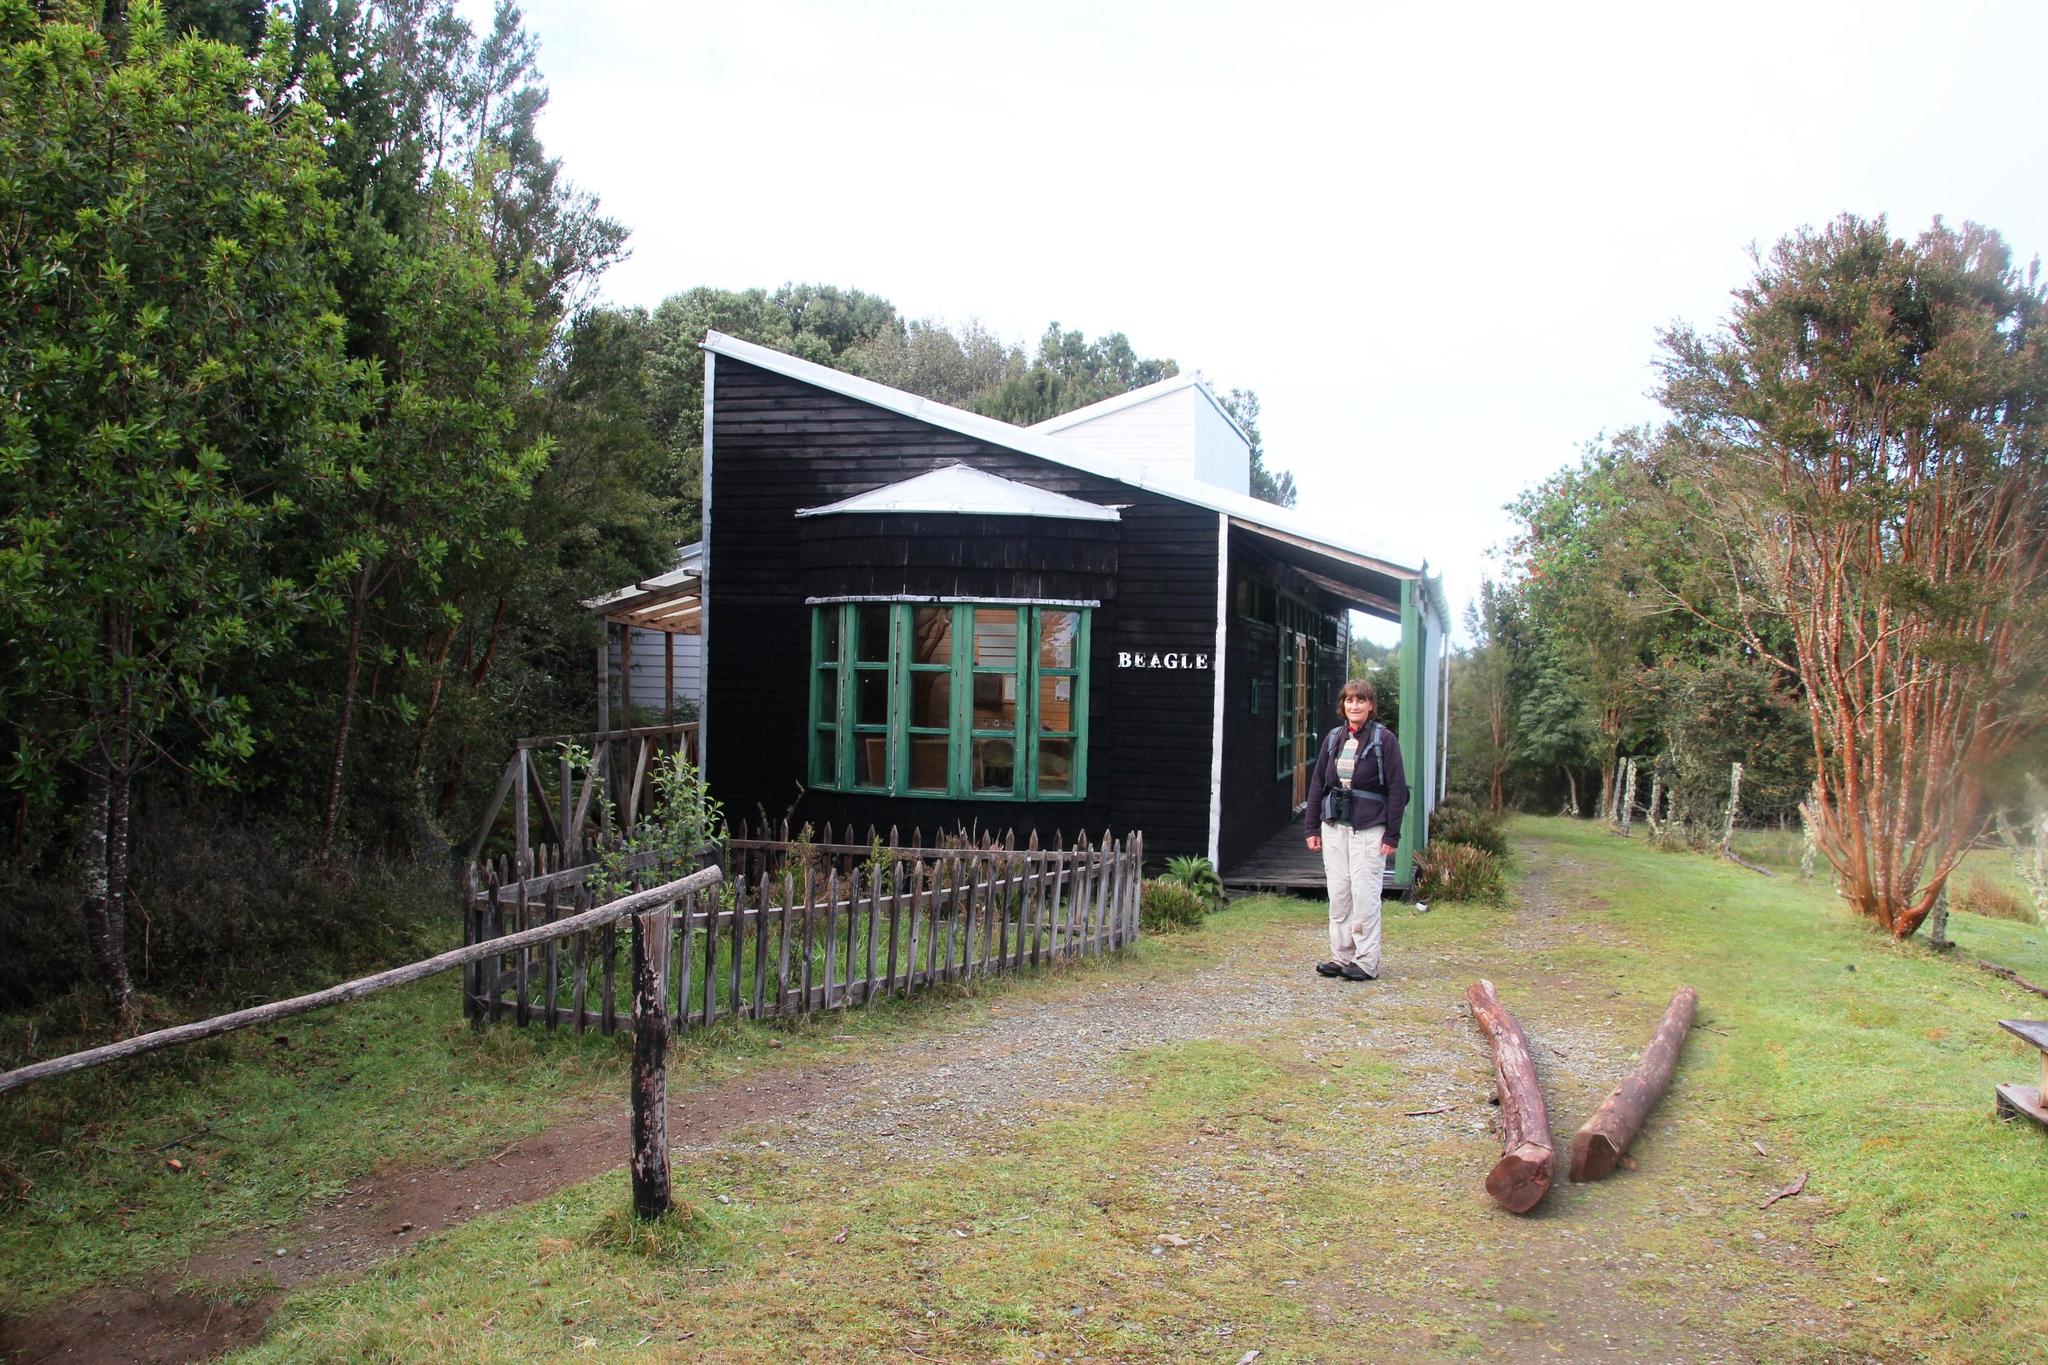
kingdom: Plantae
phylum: Tracheophyta
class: Magnoliopsida
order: Myrtales
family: Myrtaceae
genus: Luma
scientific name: Luma apiculata
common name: Chilean myrtle
